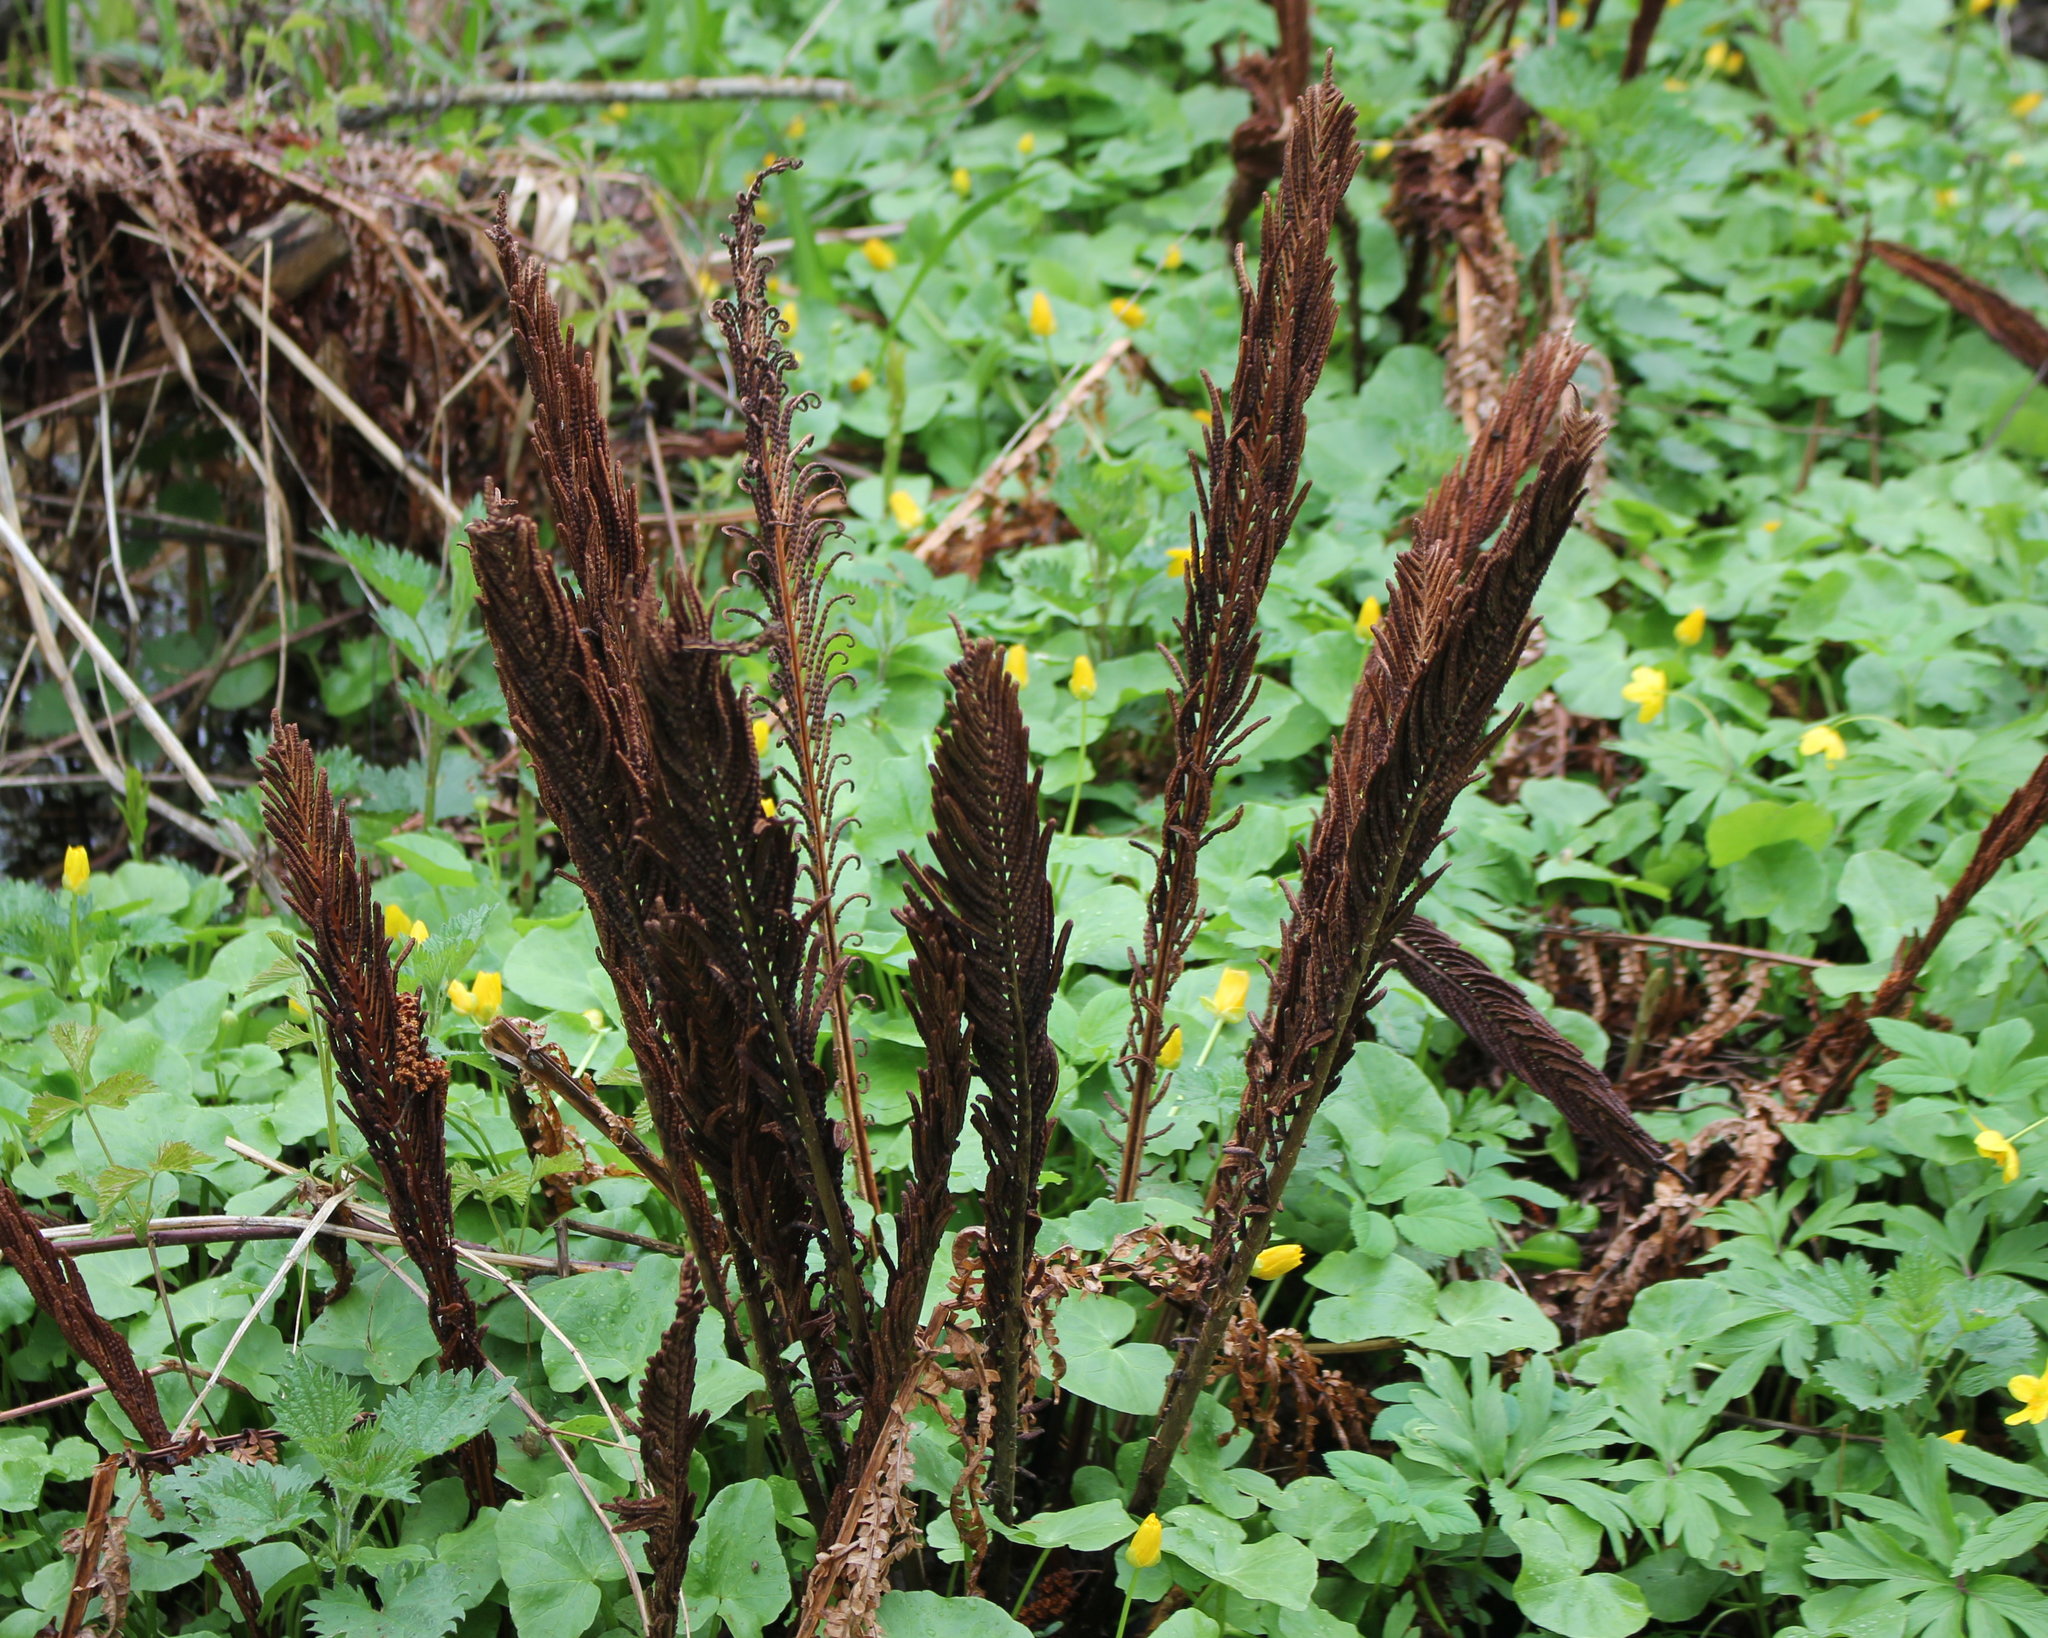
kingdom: Plantae
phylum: Tracheophyta
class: Polypodiopsida
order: Polypodiales
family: Onocleaceae
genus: Matteuccia
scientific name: Matteuccia struthiopteris
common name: Ostrich fern
